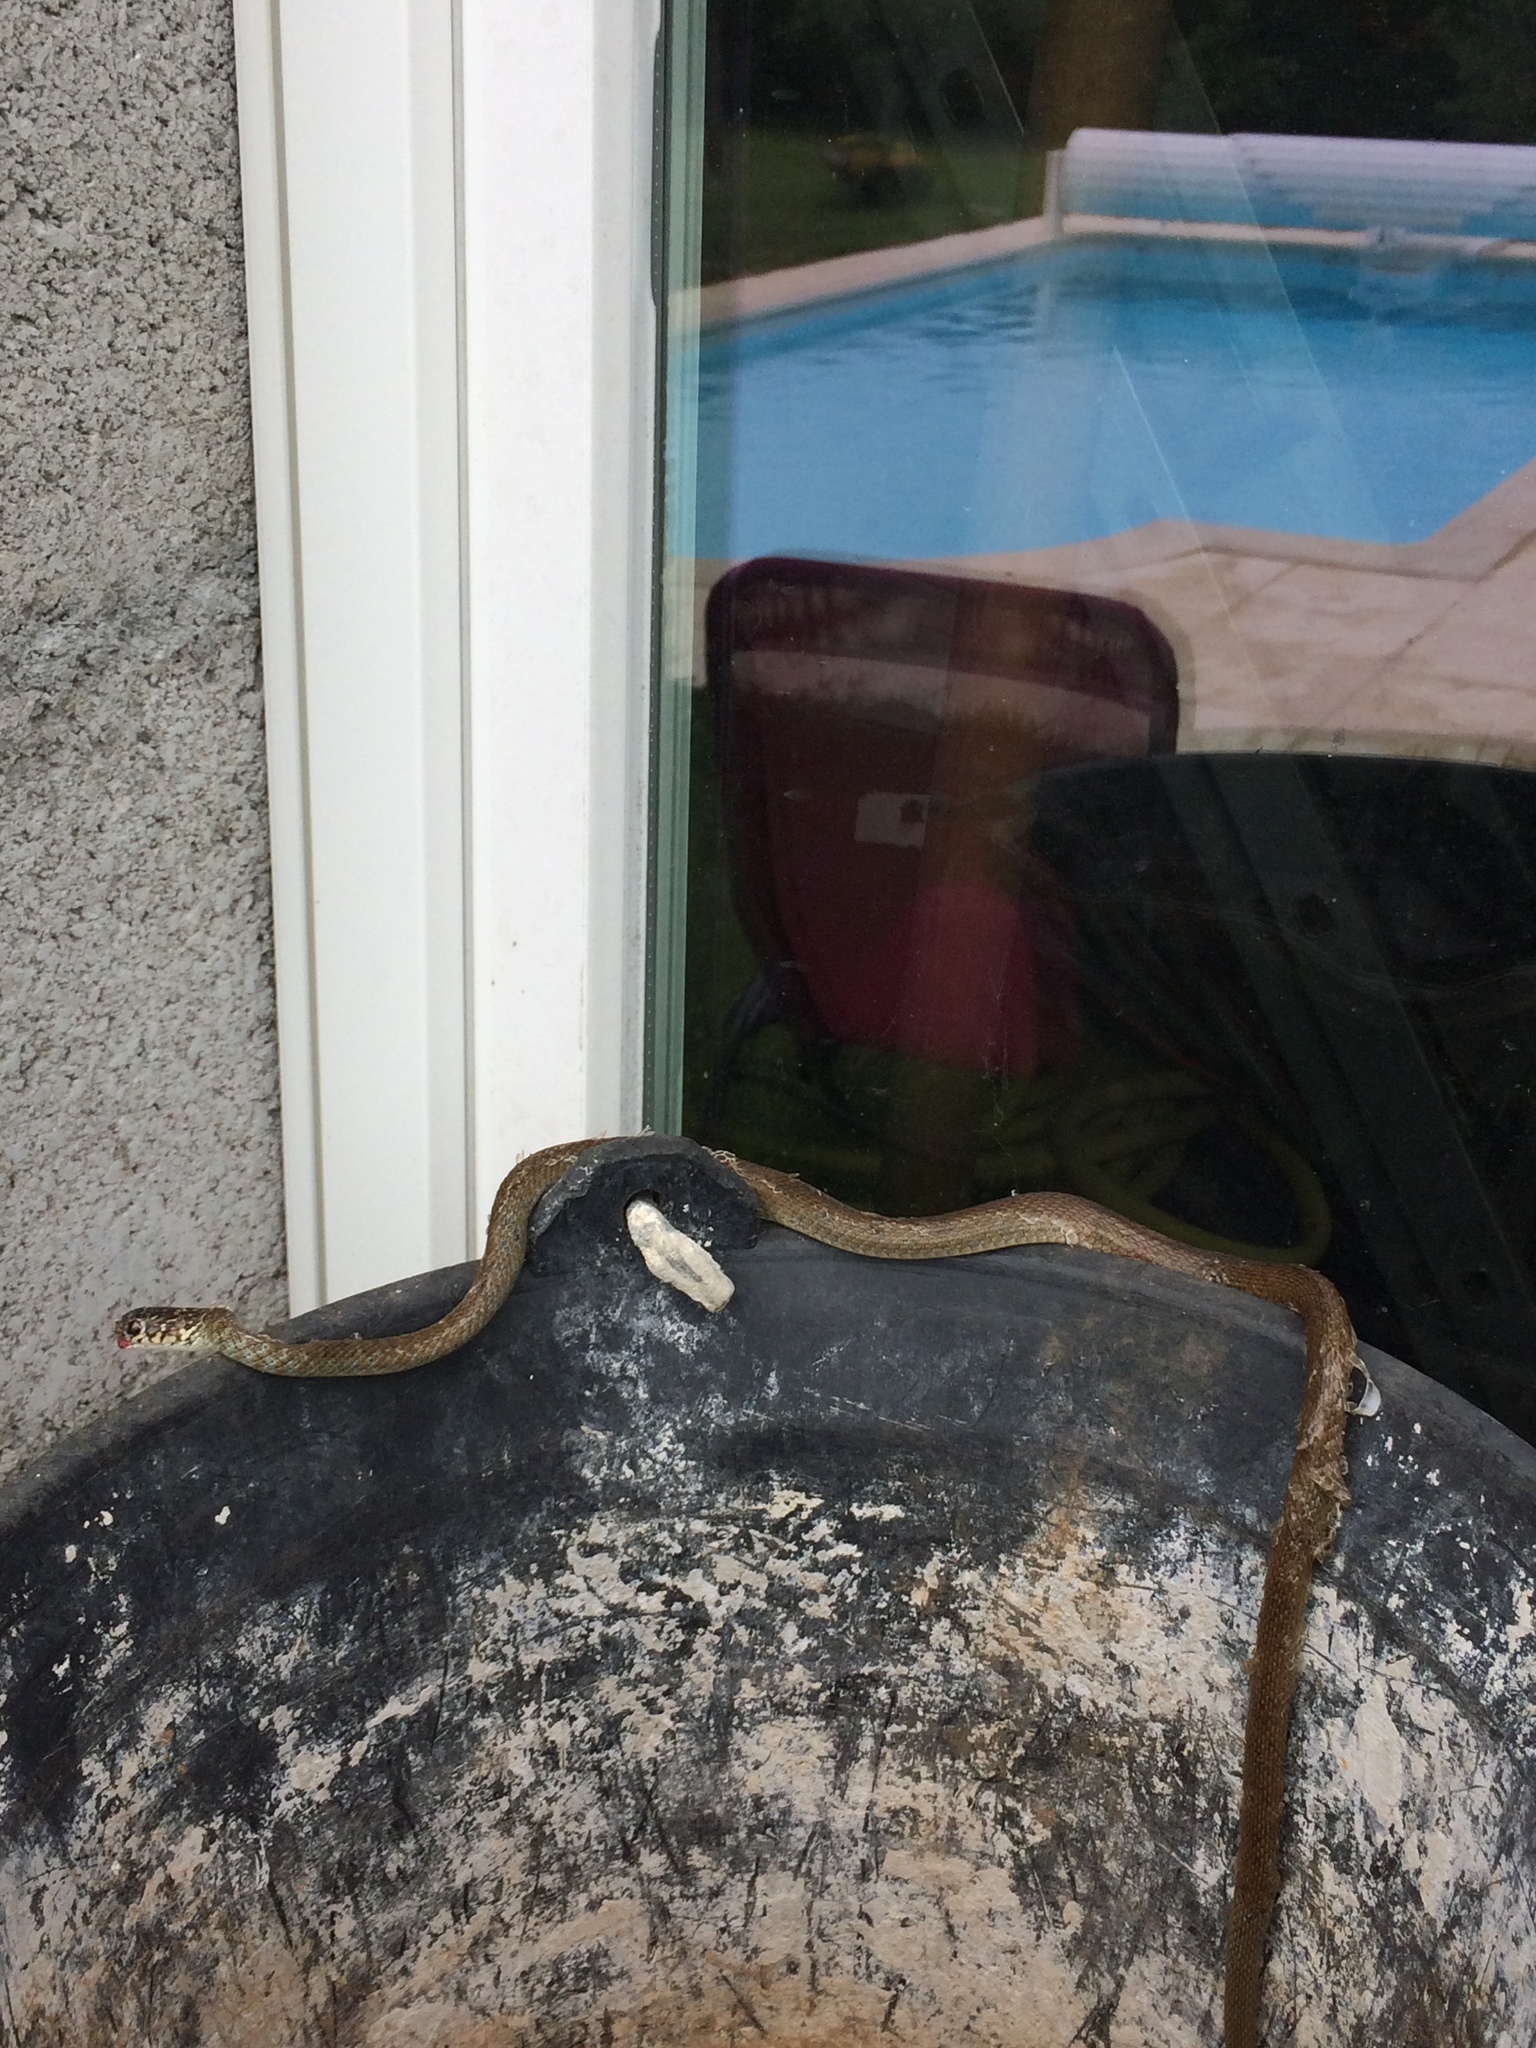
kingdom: Animalia
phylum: Chordata
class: Squamata
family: Colubridae
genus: Hierophis
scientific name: Hierophis viridiflavus
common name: Green whip snake
